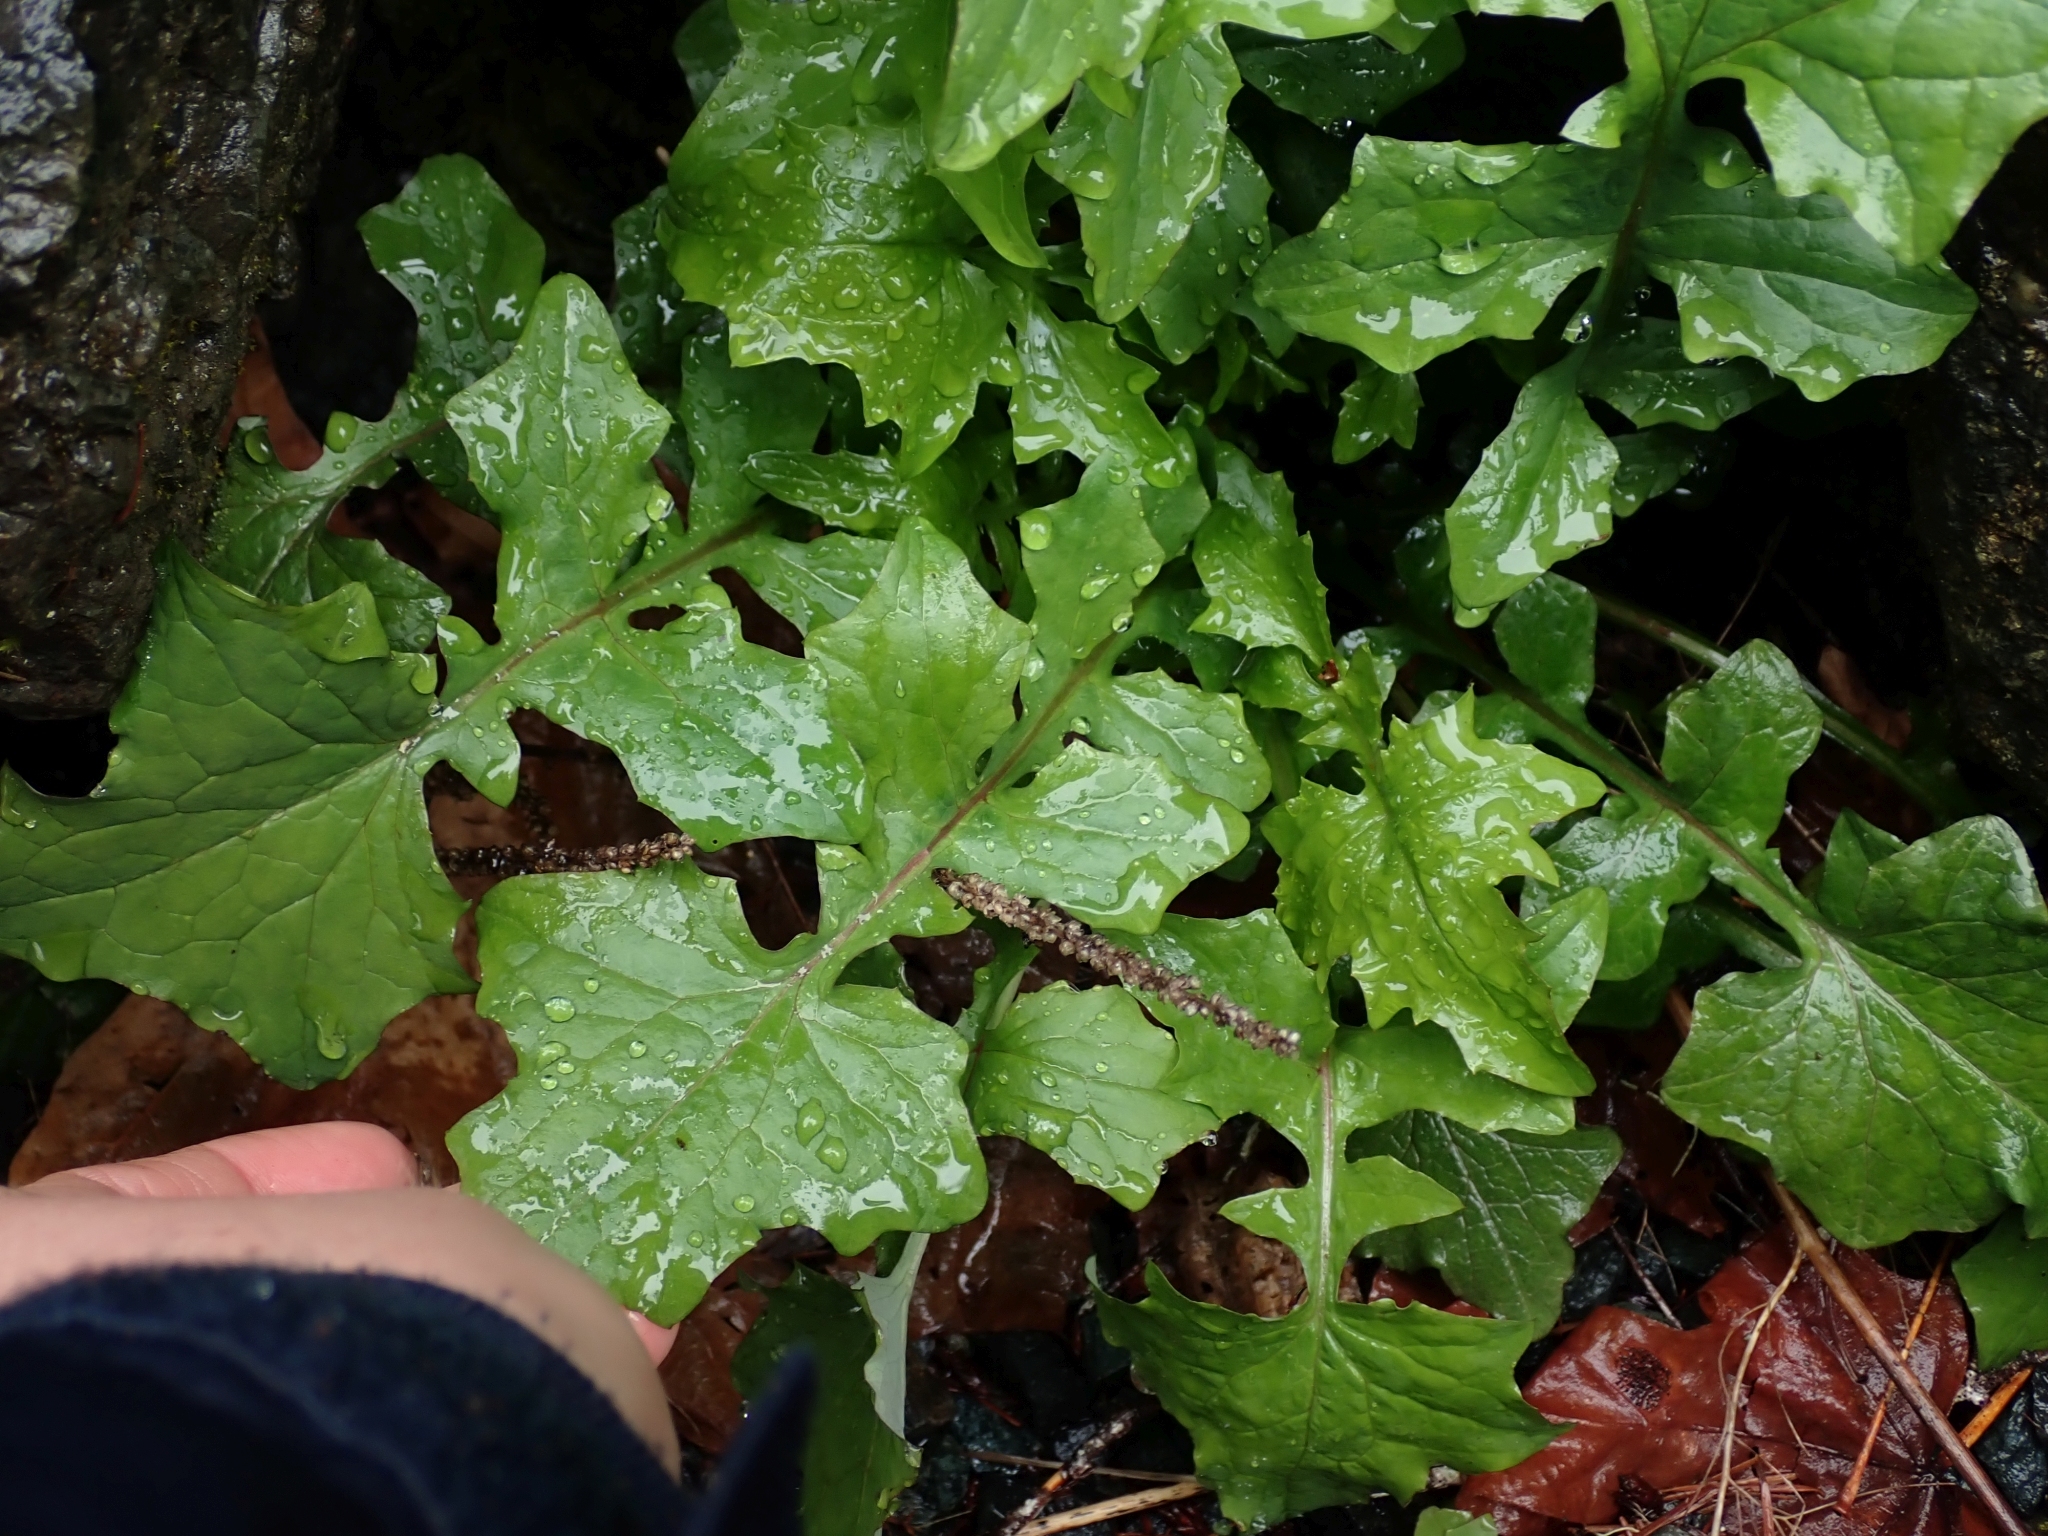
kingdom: Plantae
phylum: Tracheophyta
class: Magnoliopsida
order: Asterales
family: Asteraceae
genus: Mycelis
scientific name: Mycelis muralis
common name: Wall lettuce
